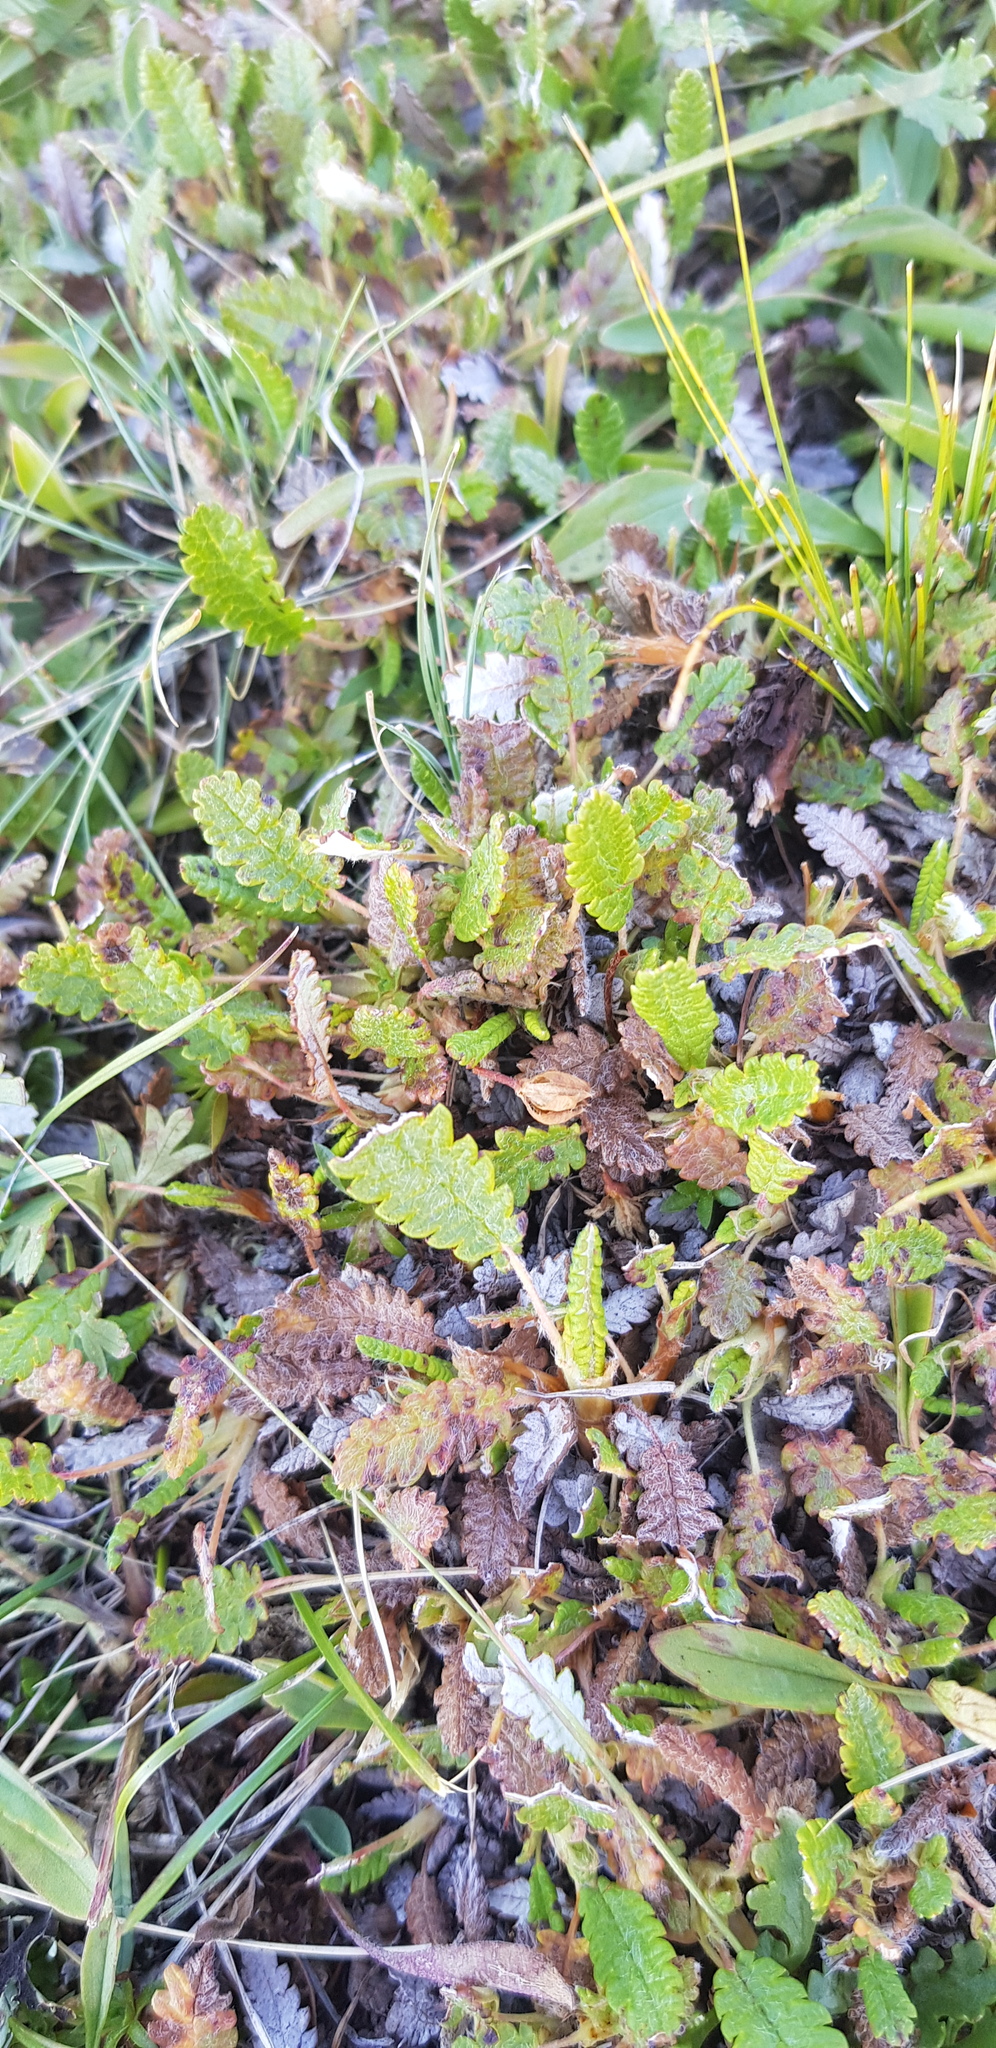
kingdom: Plantae
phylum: Tracheophyta
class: Magnoliopsida
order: Rosales
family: Rosaceae
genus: Dryas
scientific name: Dryas octopetala
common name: Eight-petal mountain-avens
